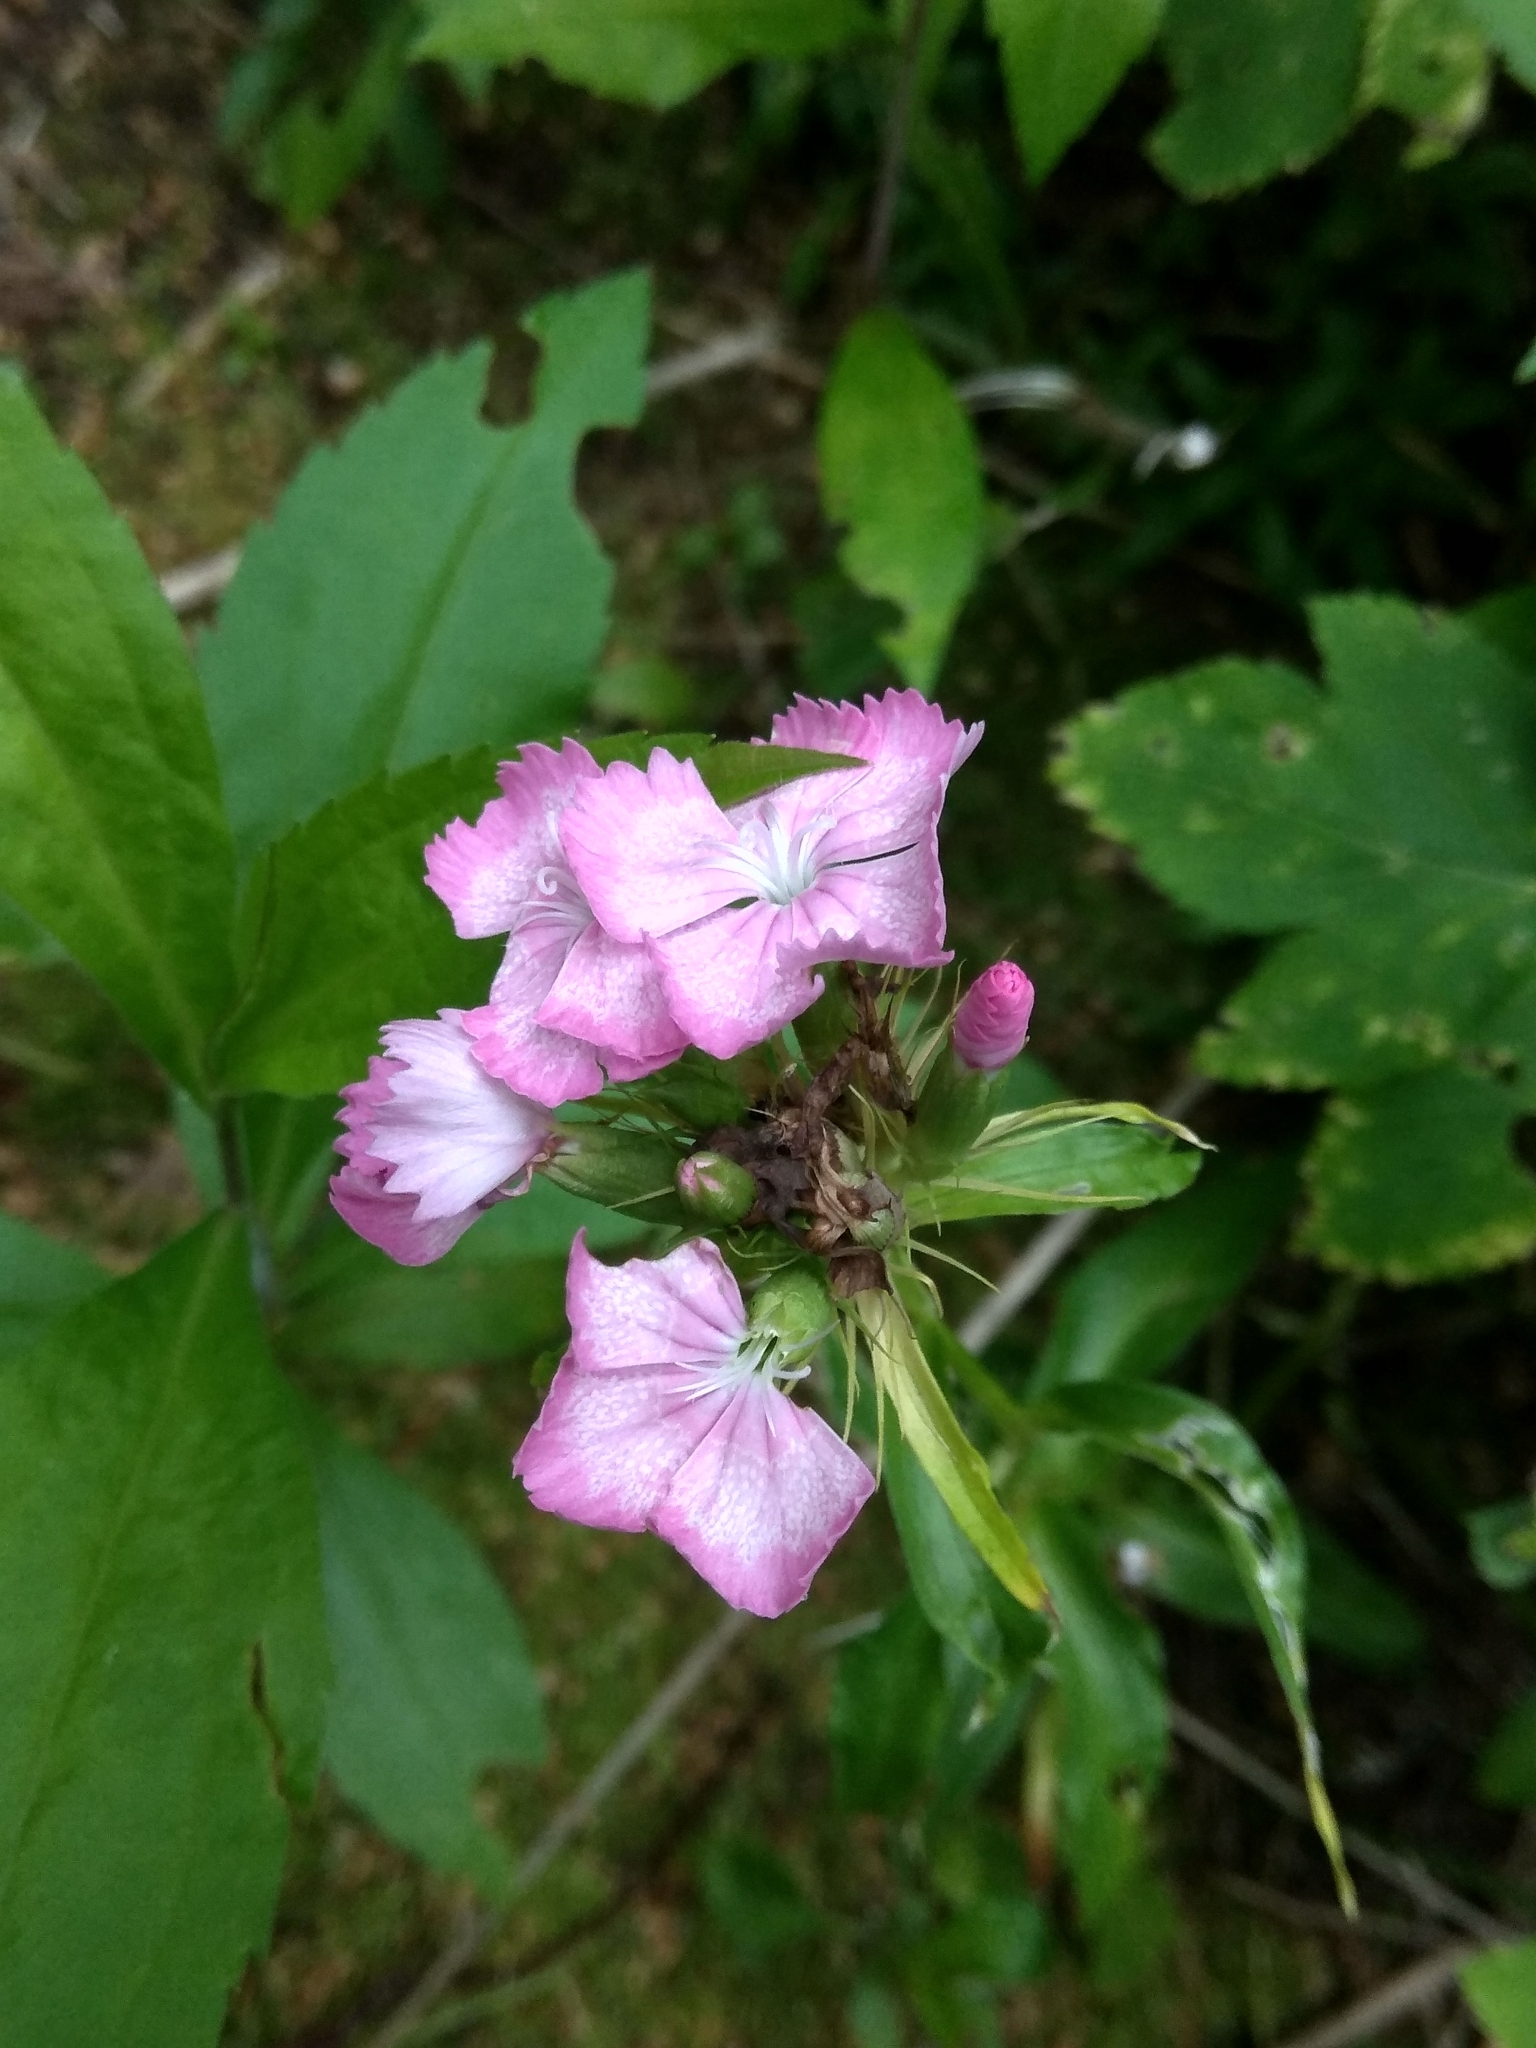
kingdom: Plantae
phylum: Tracheophyta
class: Magnoliopsida
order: Caryophyllales
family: Caryophyllaceae
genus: Dianthus
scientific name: Dianthus barbatus
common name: Sweet-william
